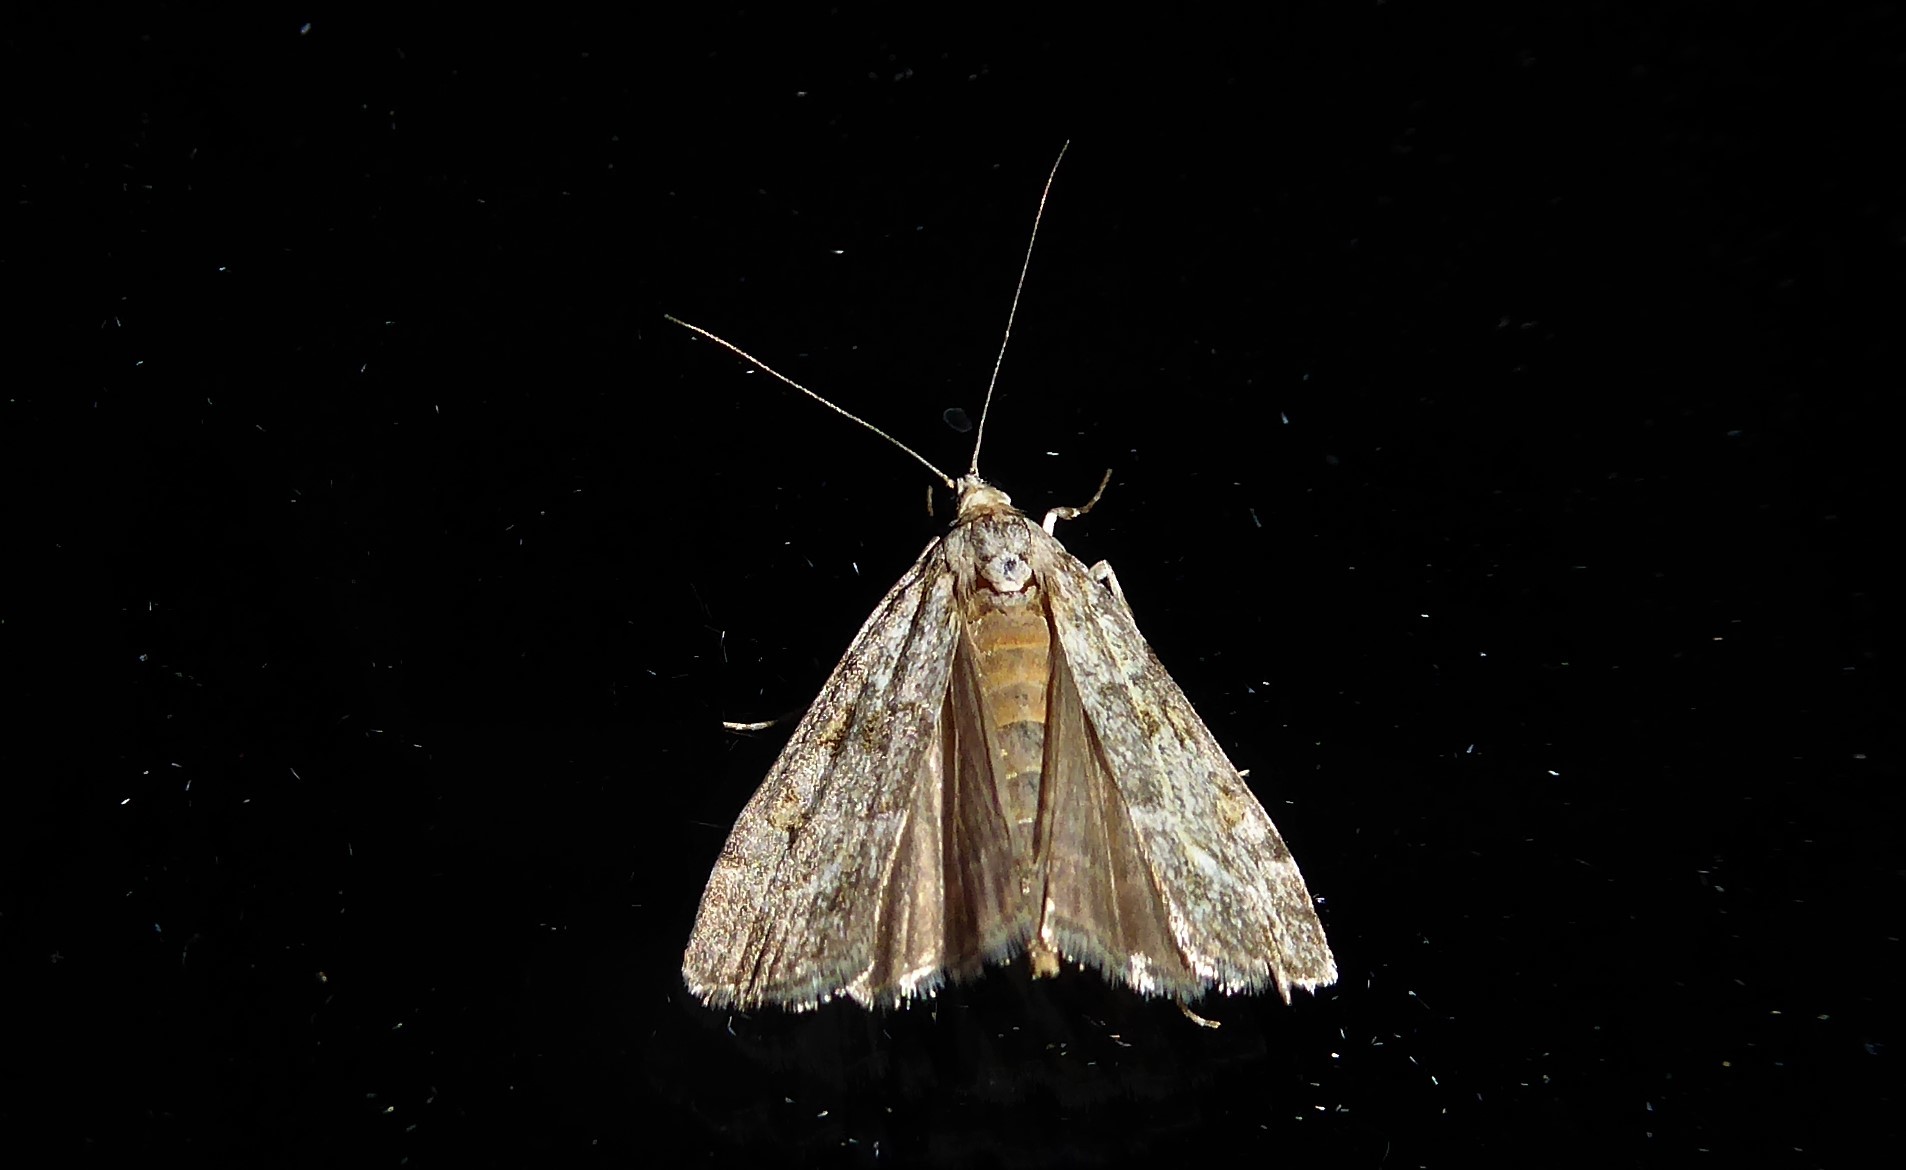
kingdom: Animalia
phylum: Arthropoda
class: Insecta
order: Lepidoptera
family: Crambidae
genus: Eudonia
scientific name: Eudonia diphtheralis
